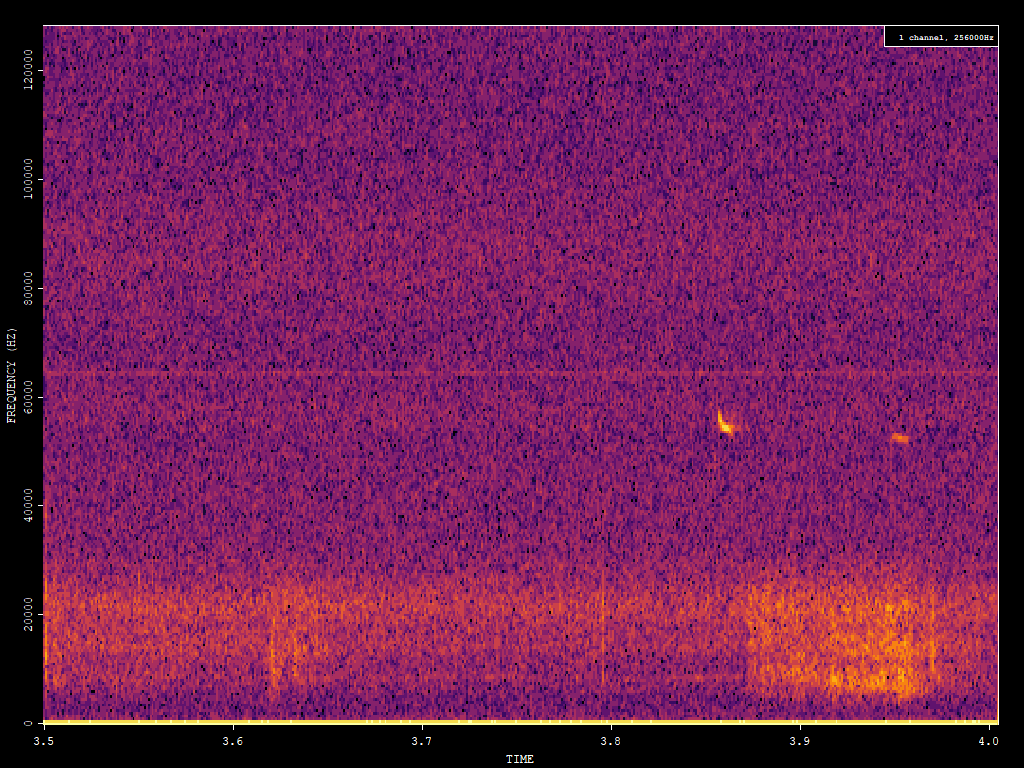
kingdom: Animalia
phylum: Chordata
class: Mammalia
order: Chiroptera
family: Vespertilionidae
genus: Pipistrellus
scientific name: Pipistrellus pygmaeus
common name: Soprano pipistrelle
